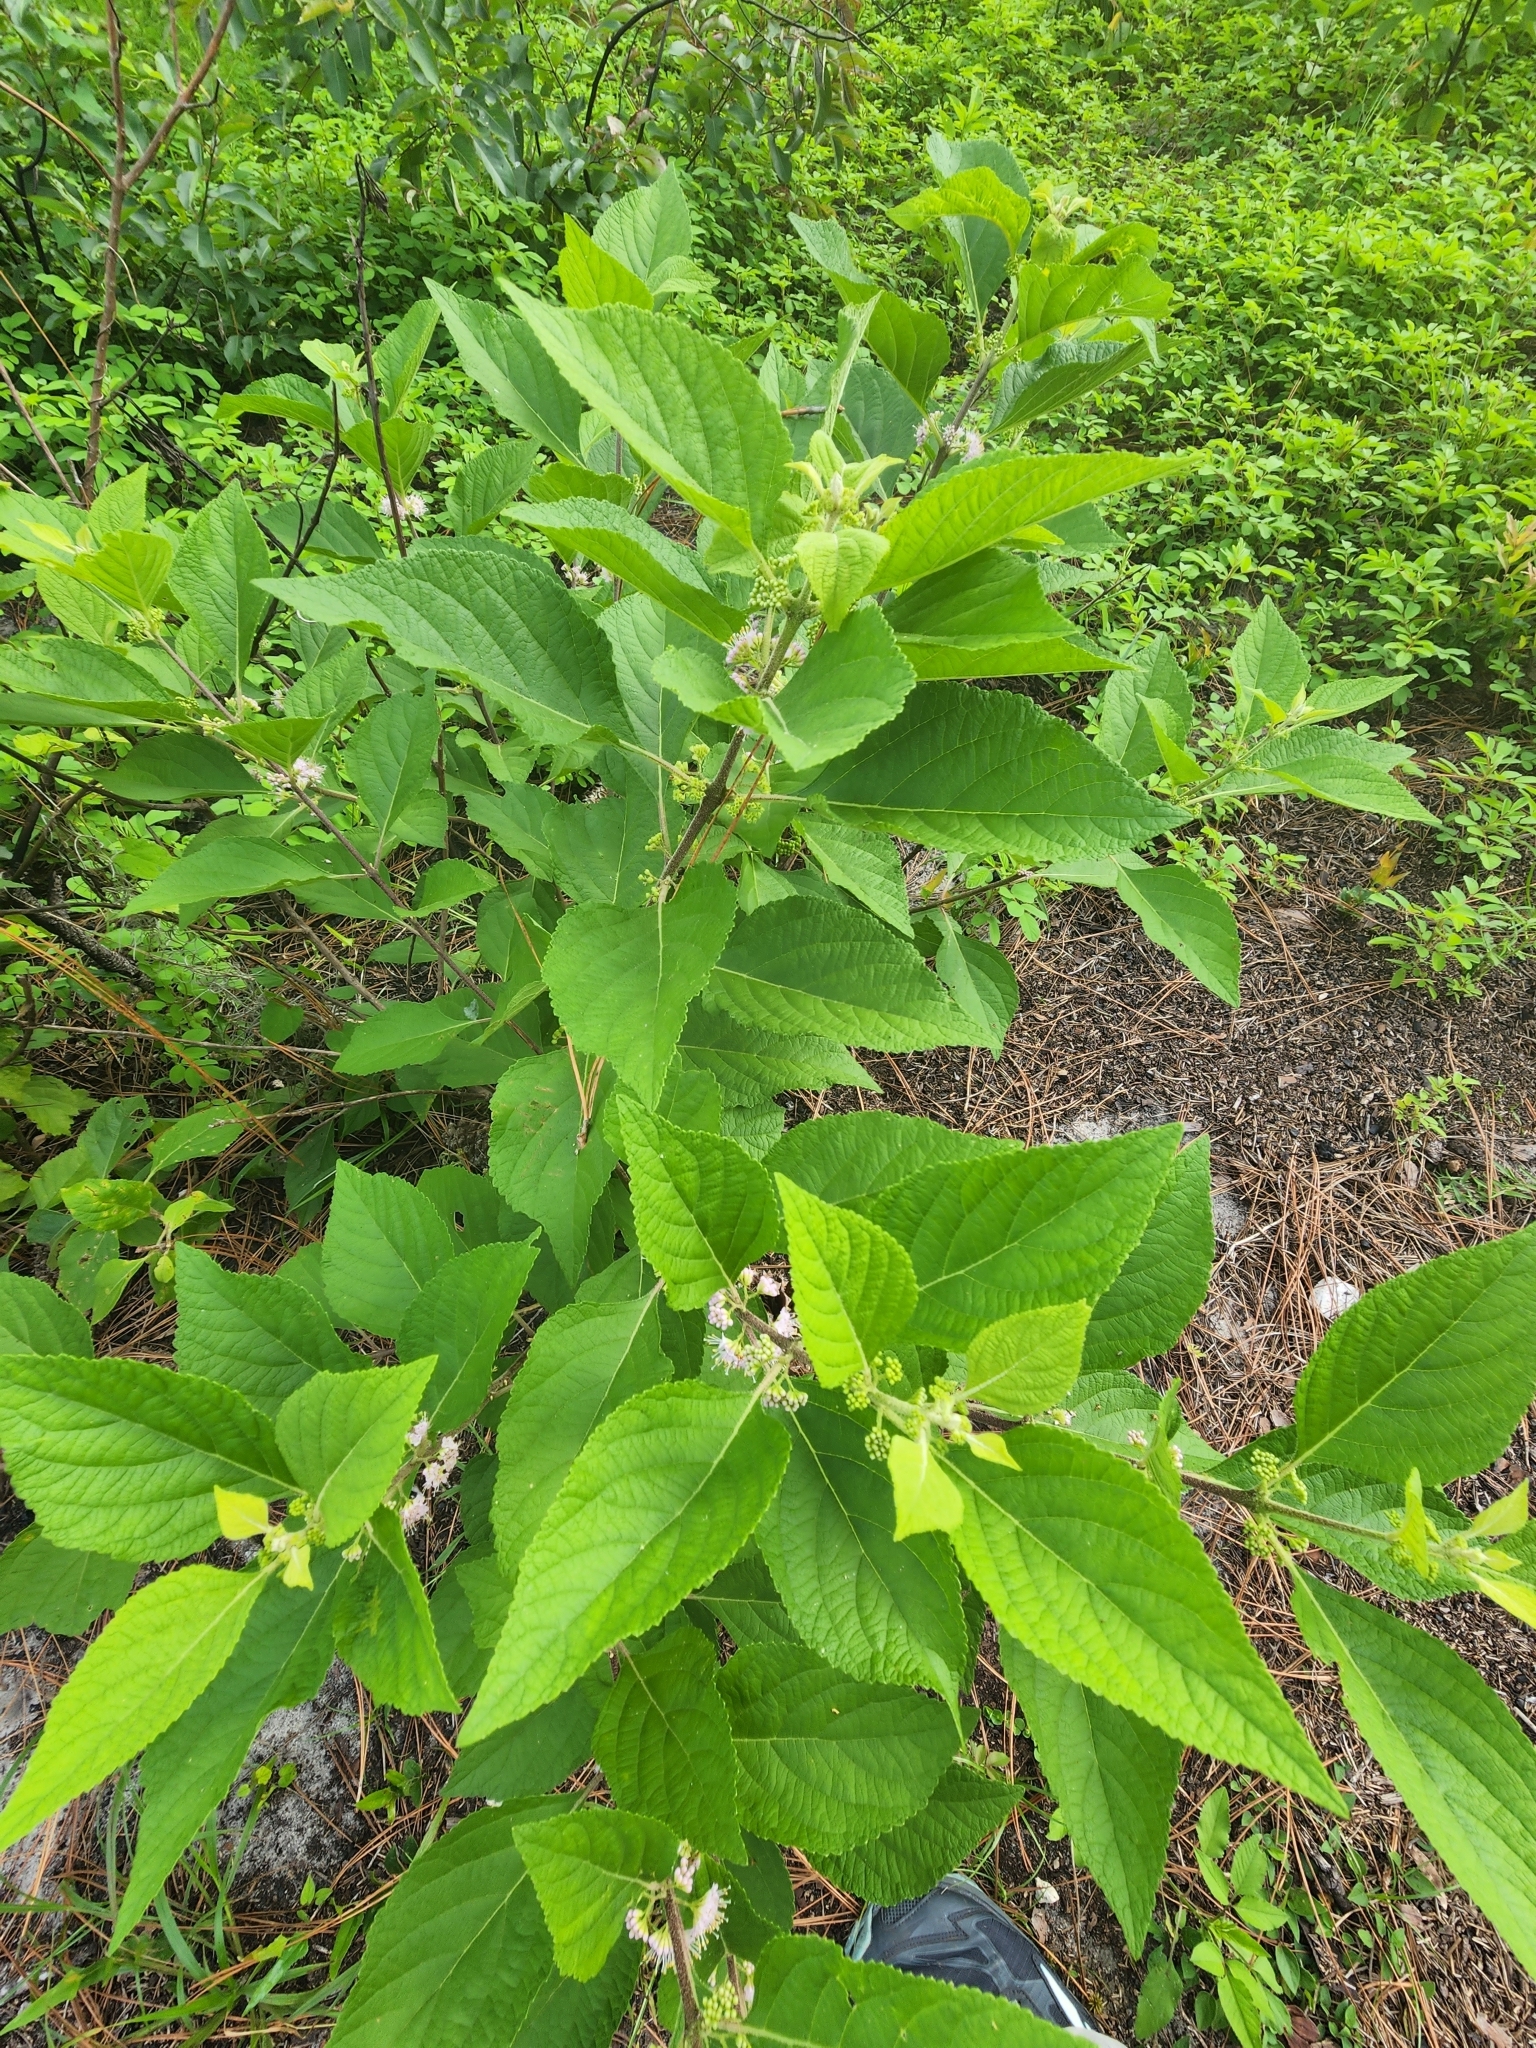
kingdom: Plantae
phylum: Tracheophyta
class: Magnoliopsida
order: Lamiales
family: Lamiaceae
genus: Callicarpa
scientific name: Callicarpa americana
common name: American beautyberry
